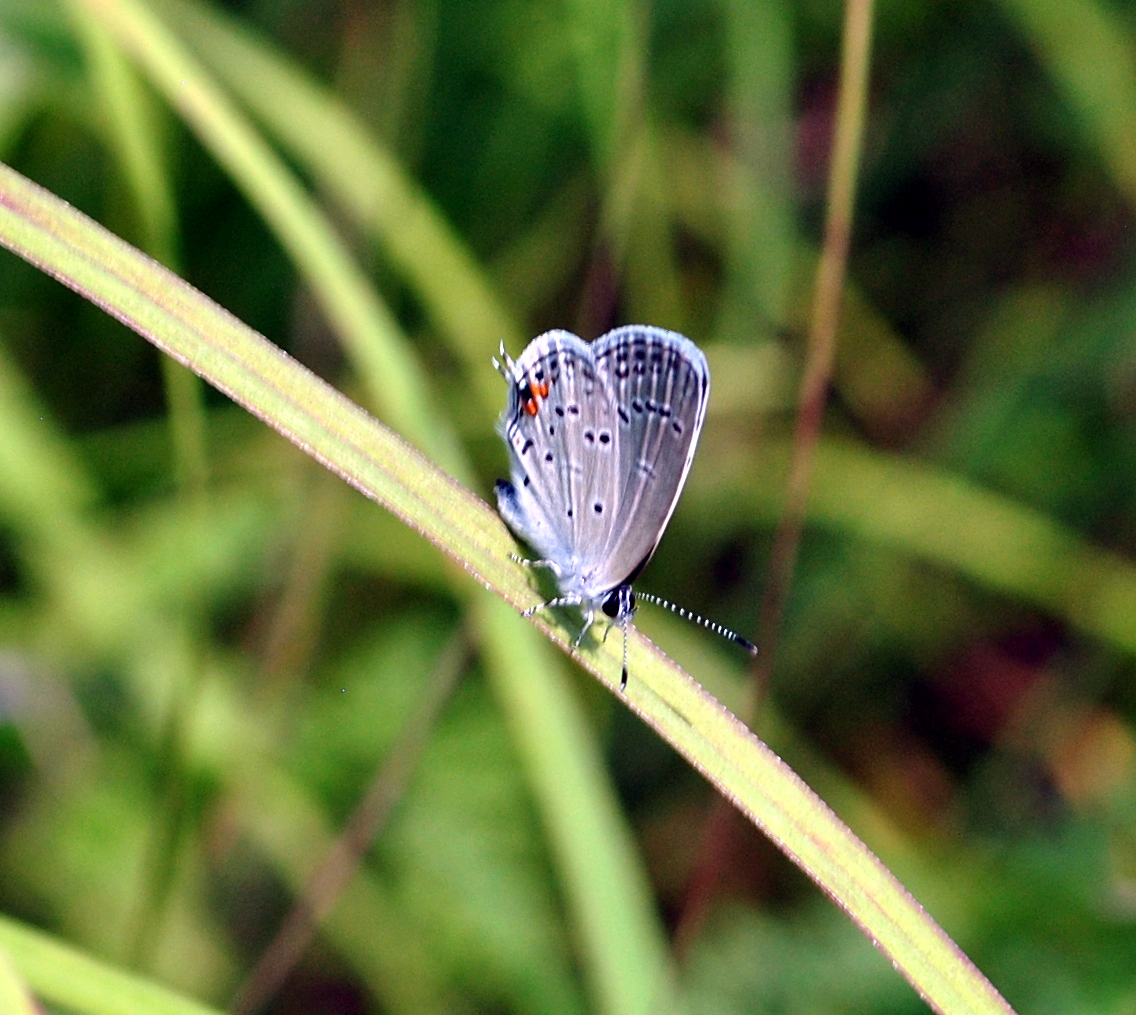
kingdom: Animalia
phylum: Arthropoda
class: Insecta
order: Lepidoptera
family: Lycaenidae
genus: Elkalyce
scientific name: Elkalyce comyntas
